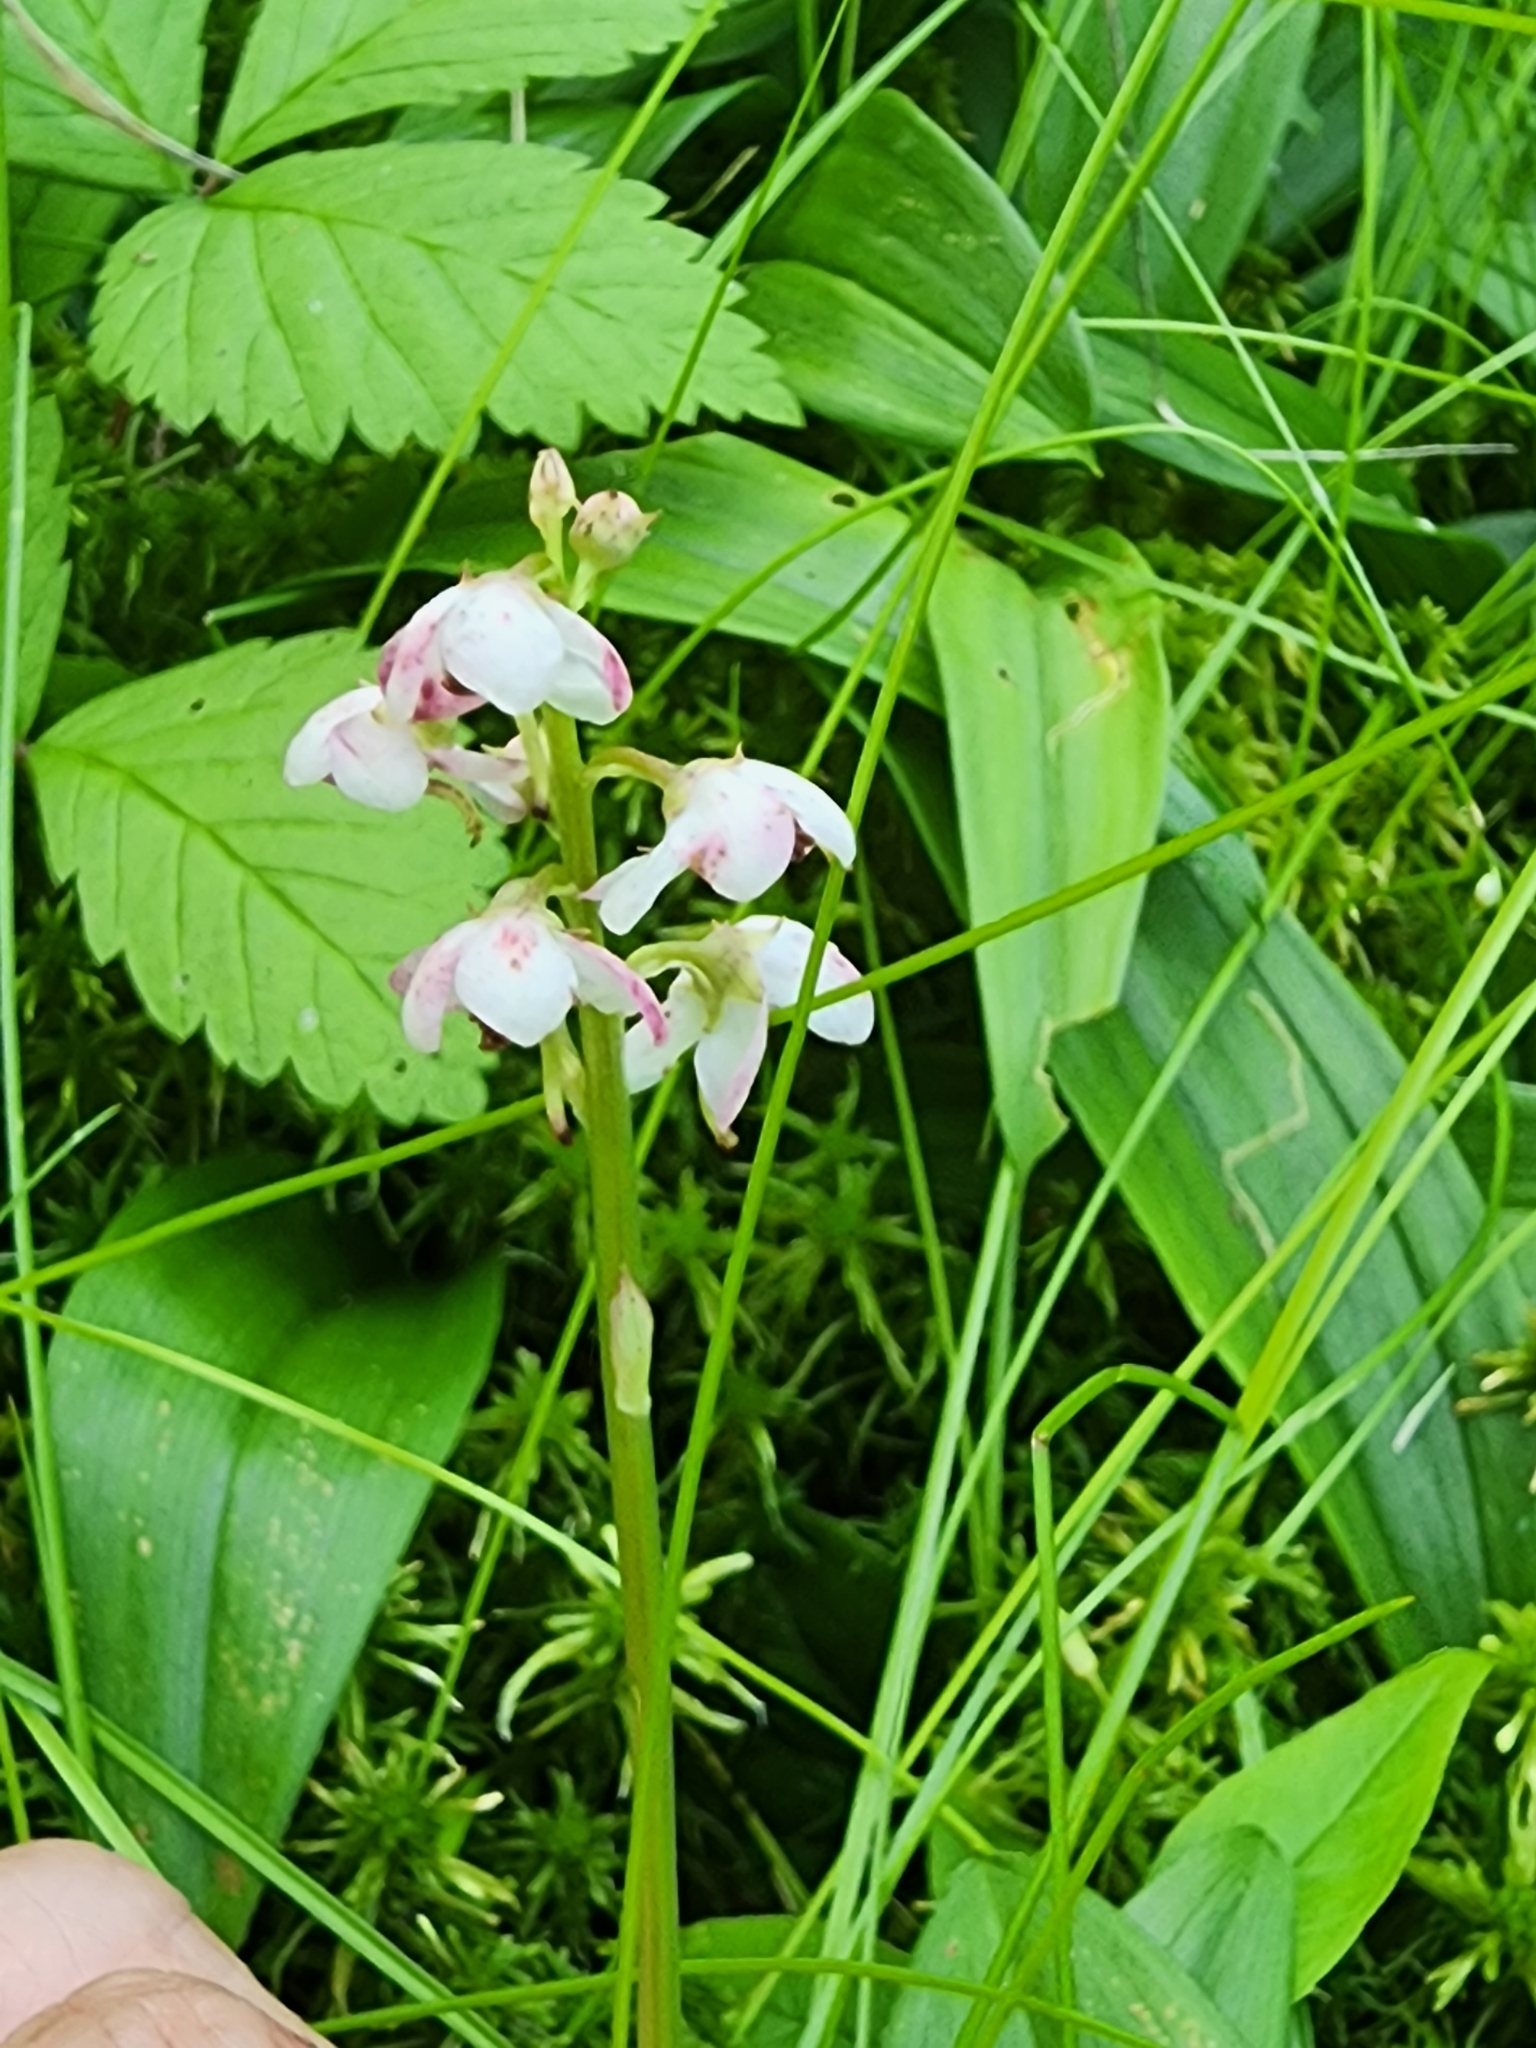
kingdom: Plantae
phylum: Tracheophyta
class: Magnoliopsida
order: Ericales
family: Ericaceae
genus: Pyrola
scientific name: Pyrola asarifolia
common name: Bog wintergreen
